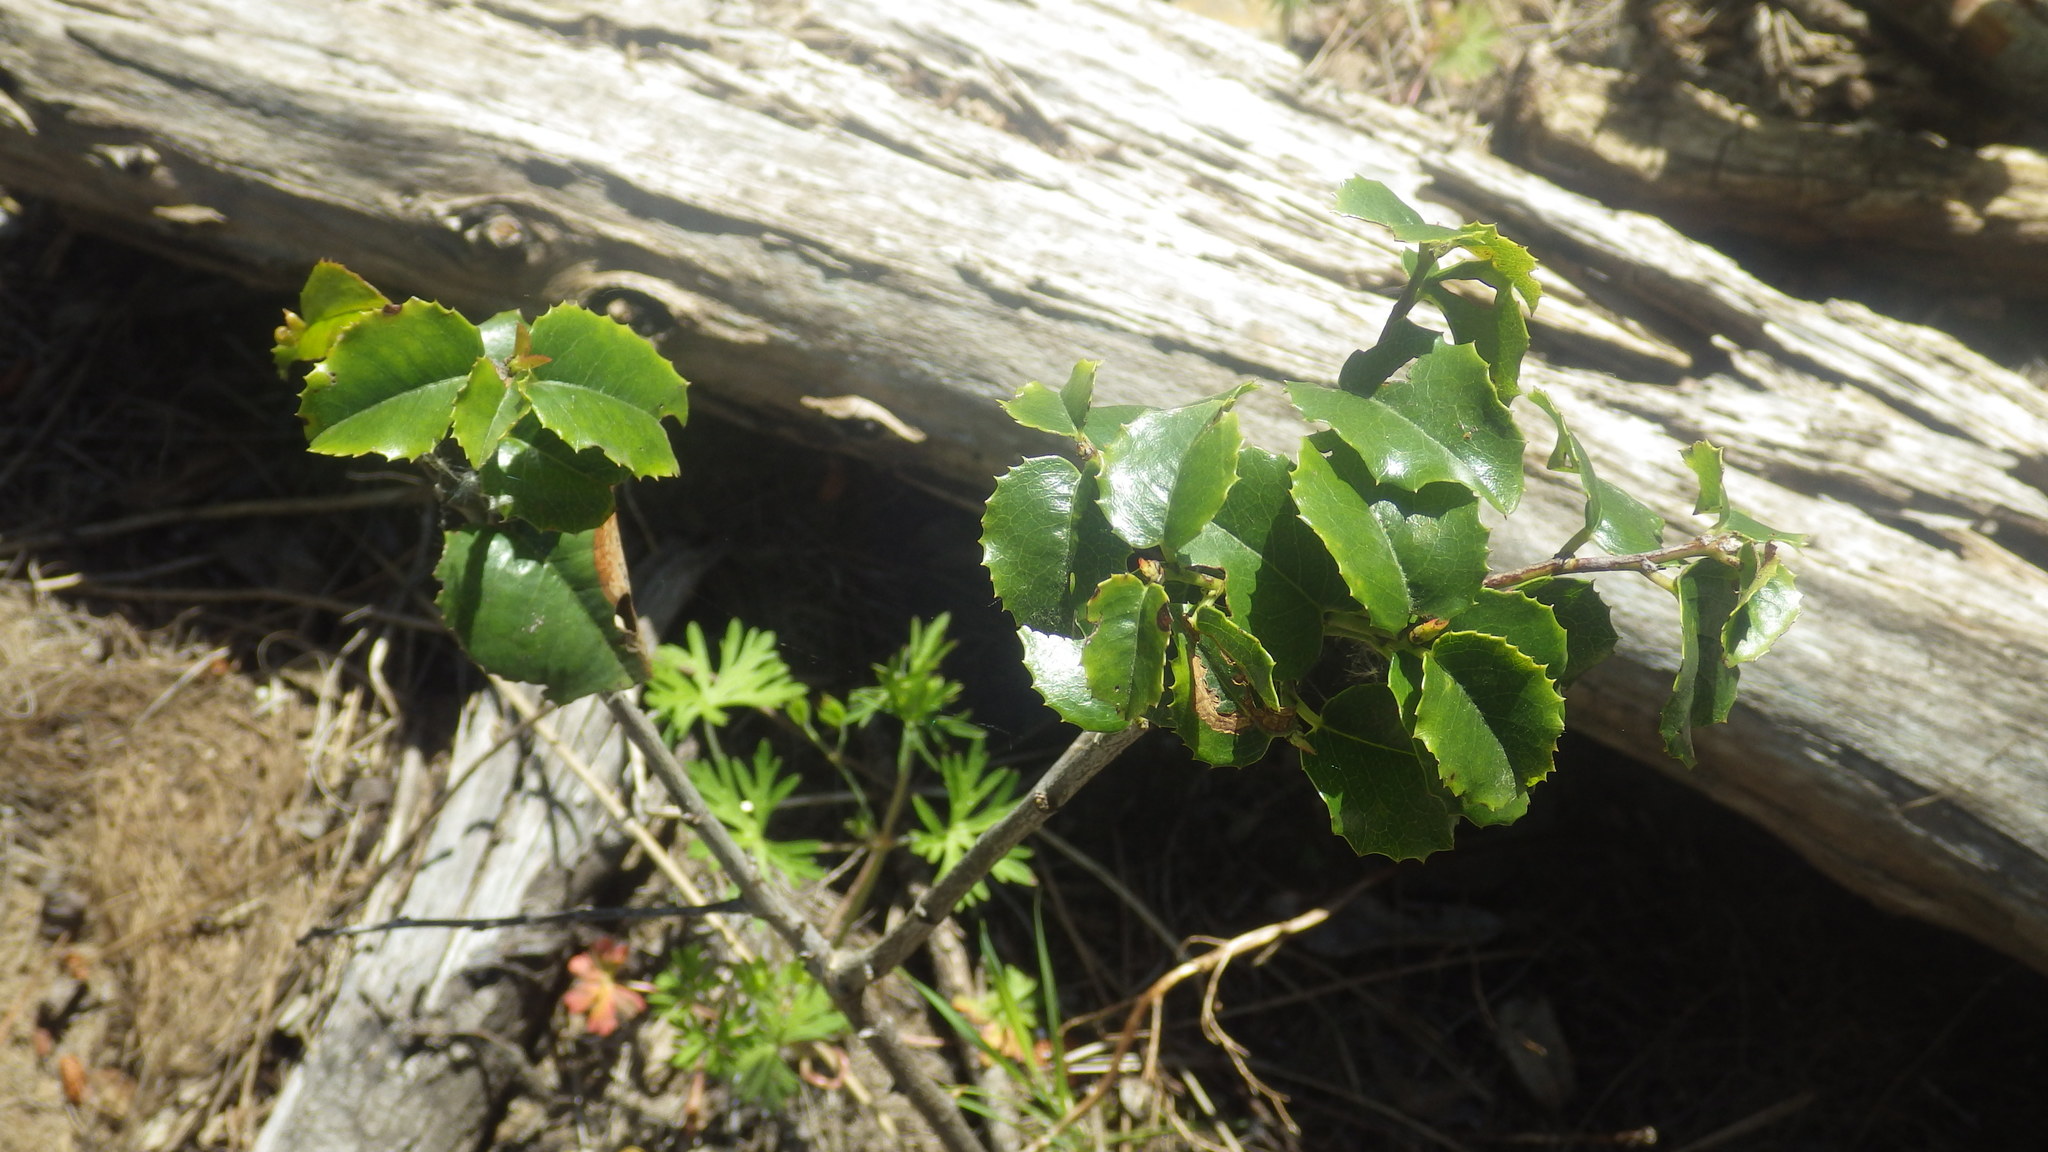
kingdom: Plantae
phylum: Tracheophyta
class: Magnoliopsida
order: Rosales
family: Rosaceae
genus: Prunus
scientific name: Prunus ilicifolia
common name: Hollyleaf cherry
